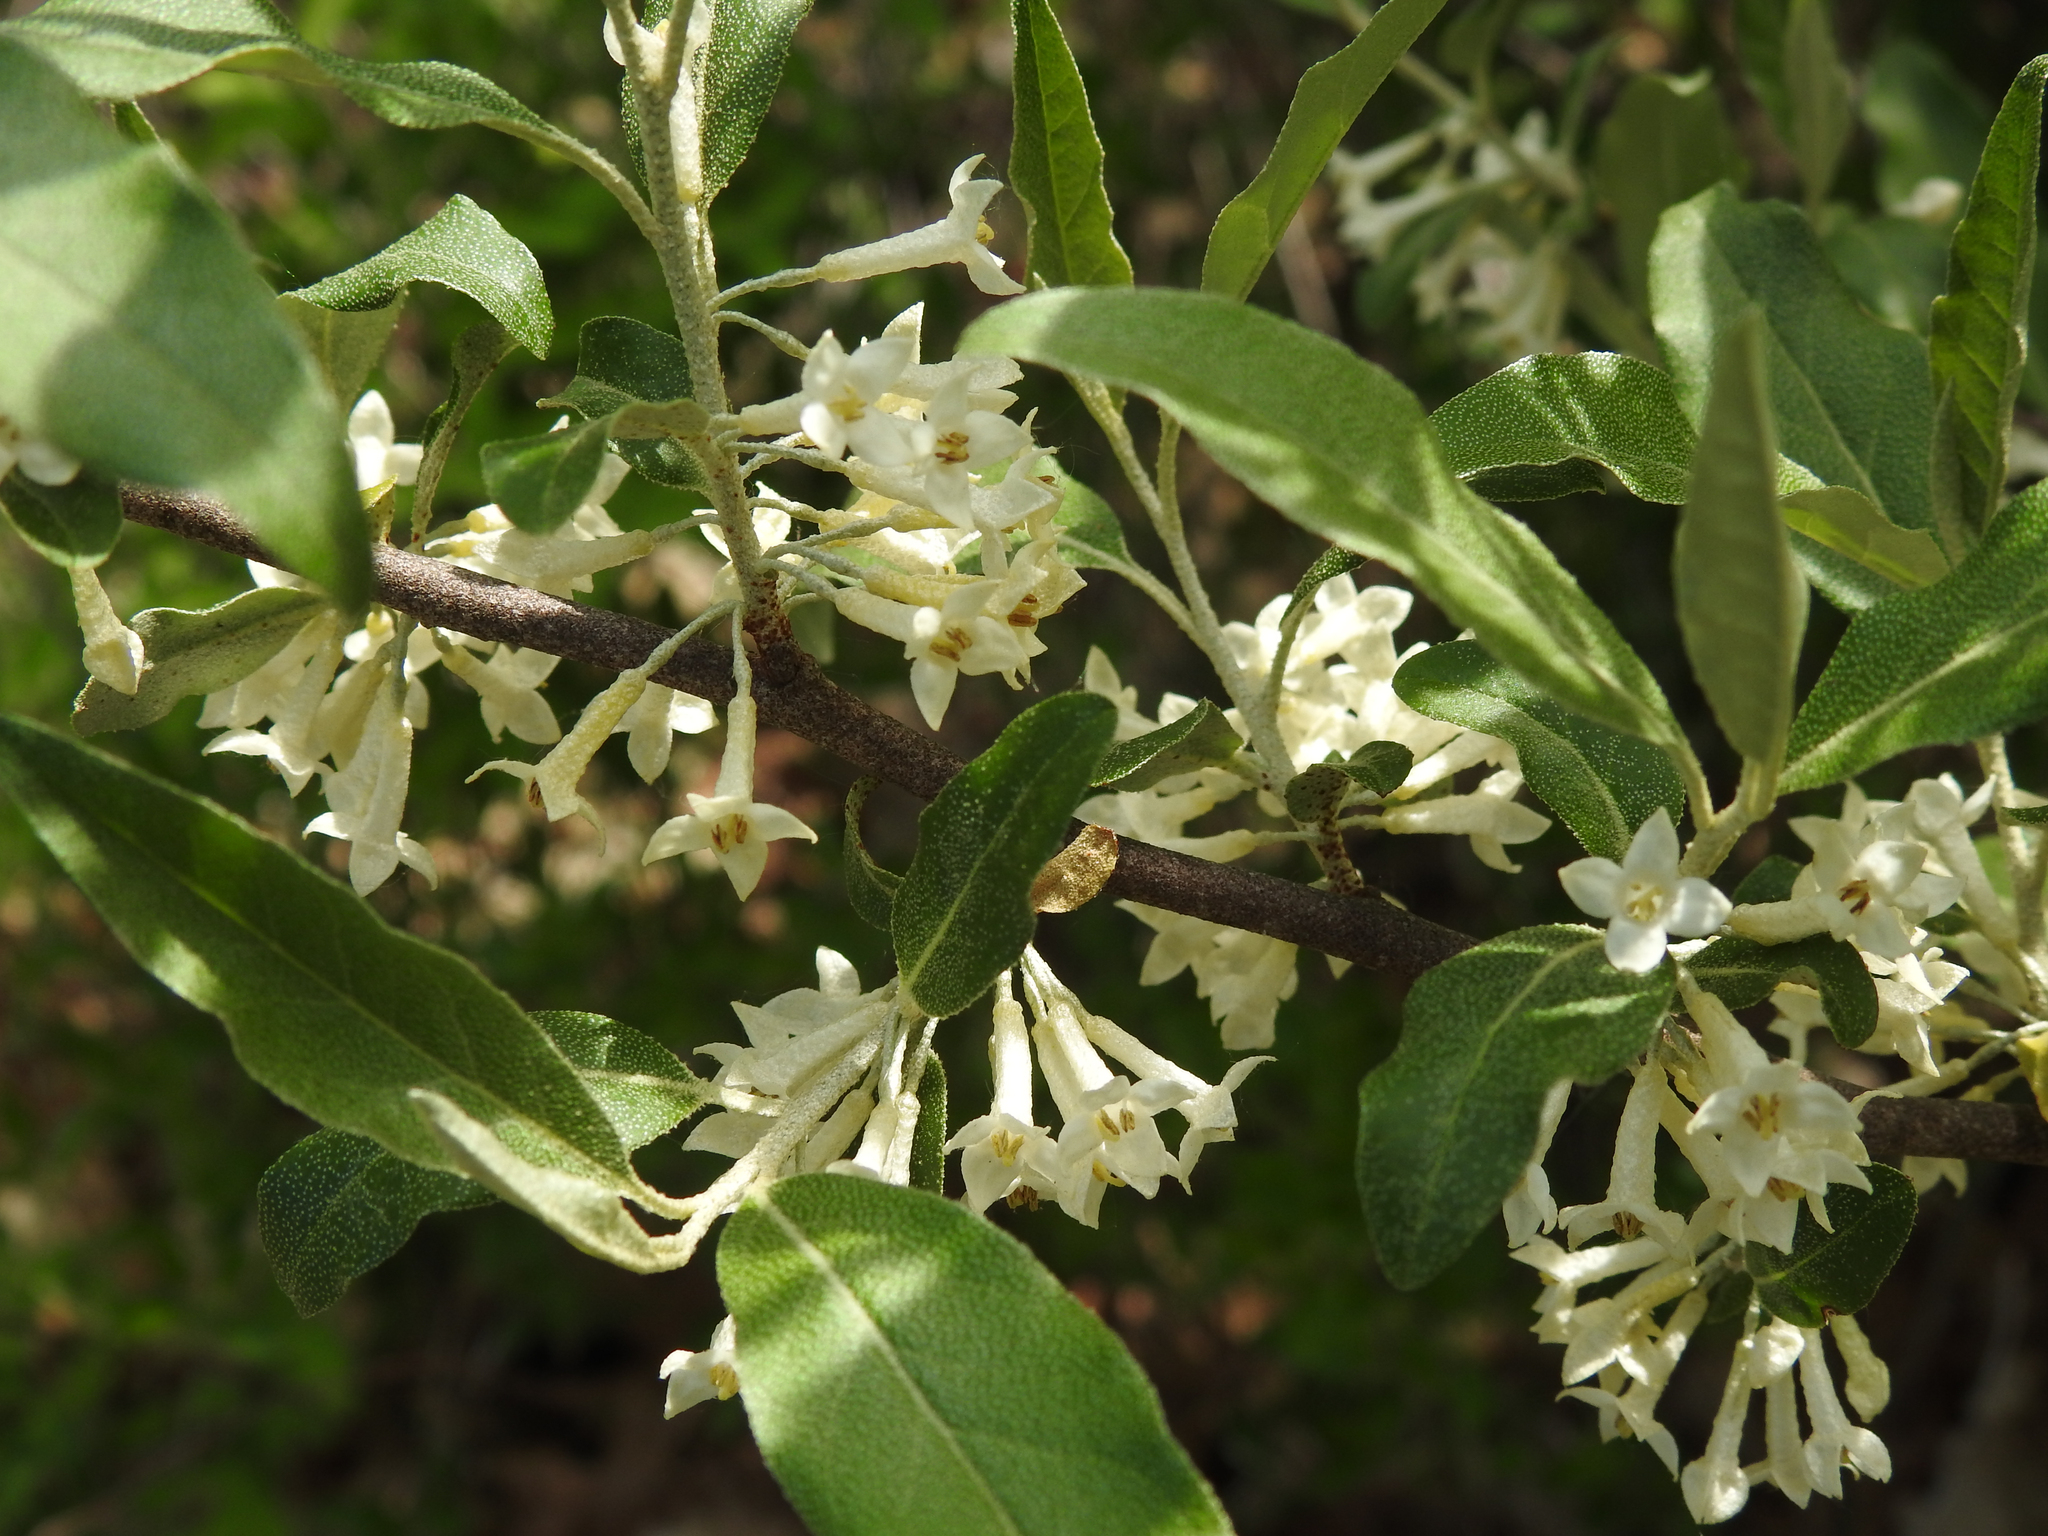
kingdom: Plantae
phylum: Tracheophyta
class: Magnoliopsida
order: Rosales
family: Elaeagnaceae
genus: Elaeagnus
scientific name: Elaeagnus umbellata
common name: Autumn olive
